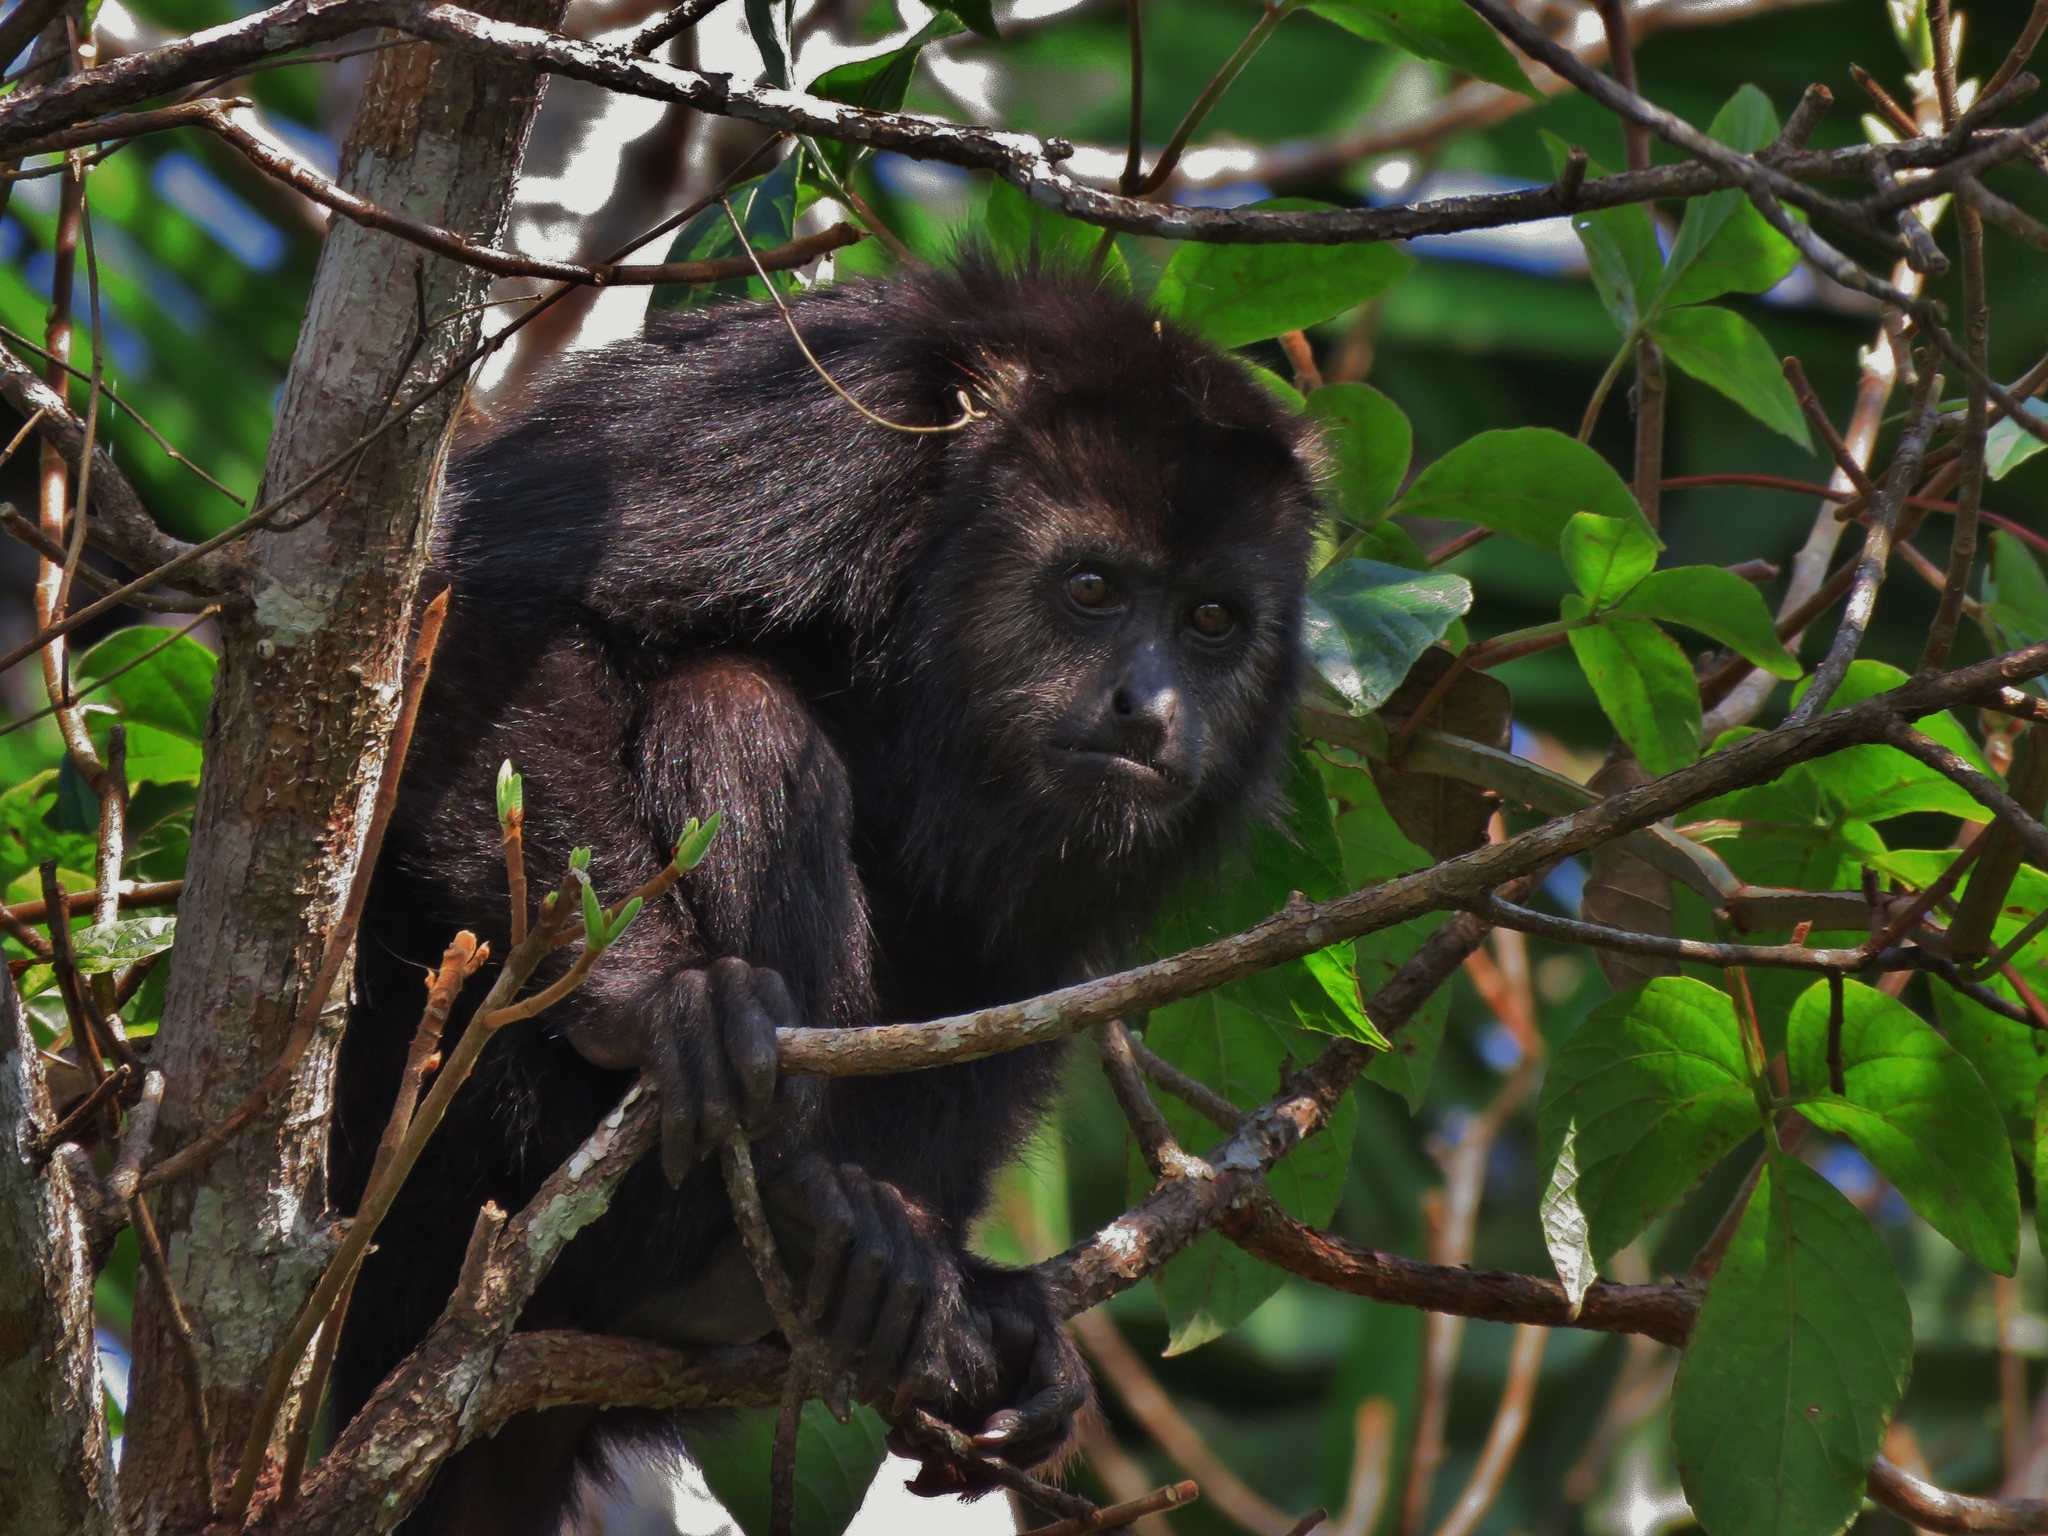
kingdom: Animalia
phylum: Chordata
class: Mammalia
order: Primates
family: Atelidae
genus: Alouatta
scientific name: Alouatta pigra
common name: Guatemalan black howler
